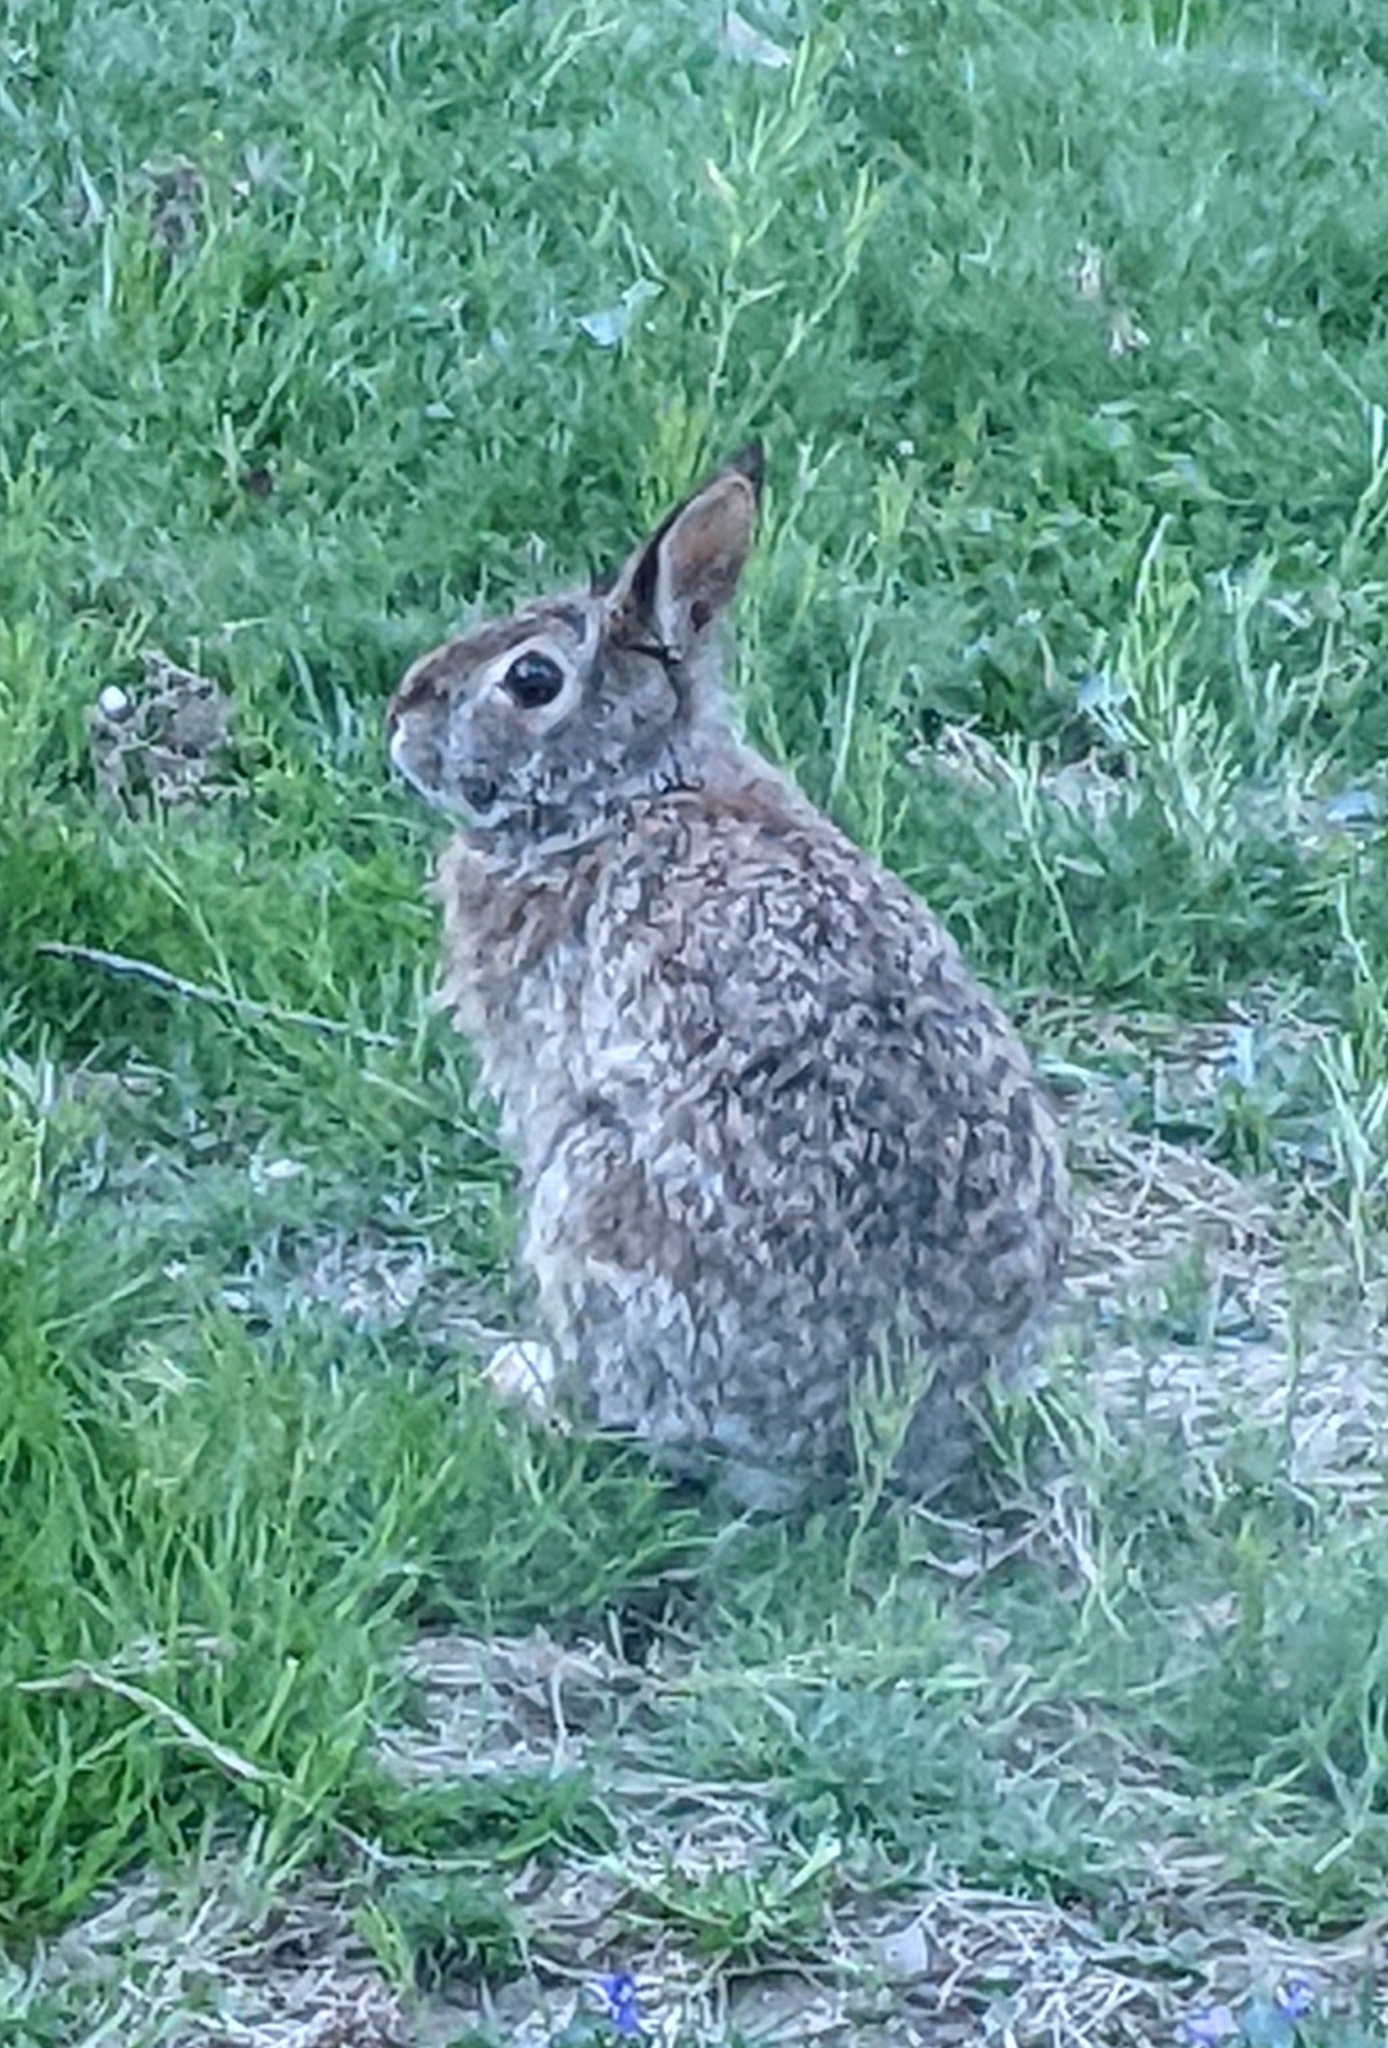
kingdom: Animalia
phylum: Chordata
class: Mammalia
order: Lagomorpha
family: Leporidae
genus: Sylvilagus
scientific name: Sylvilagus floridanus
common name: Eastern cottontail
